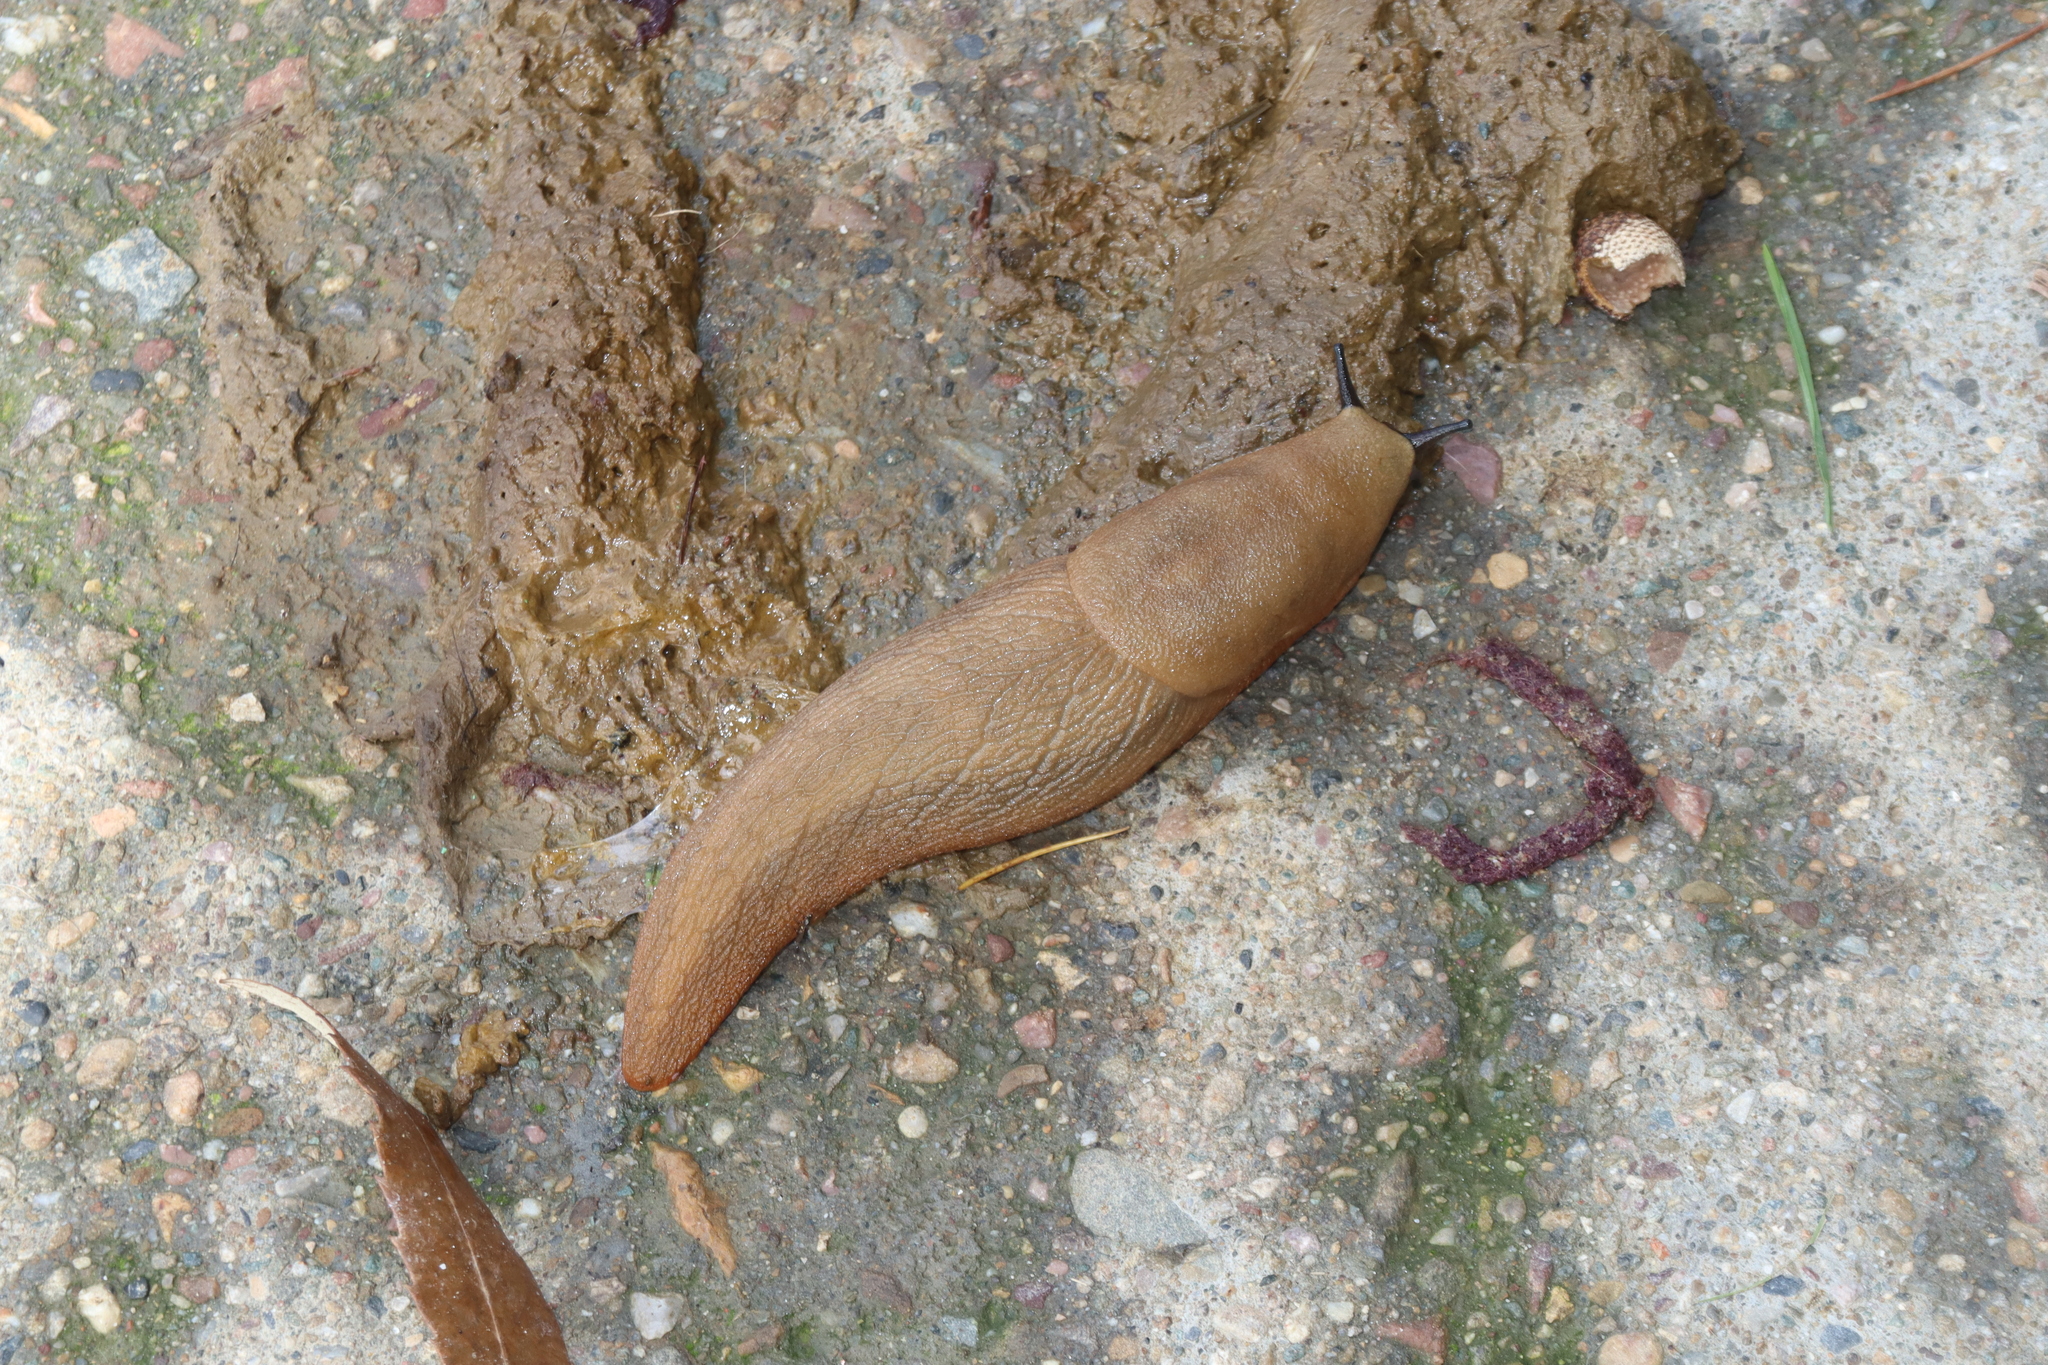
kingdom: Animalia
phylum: Mollusca
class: Gastropoda
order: Stylommatophora
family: Anadenidae
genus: Anadenus
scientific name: Anadenus altivagus
